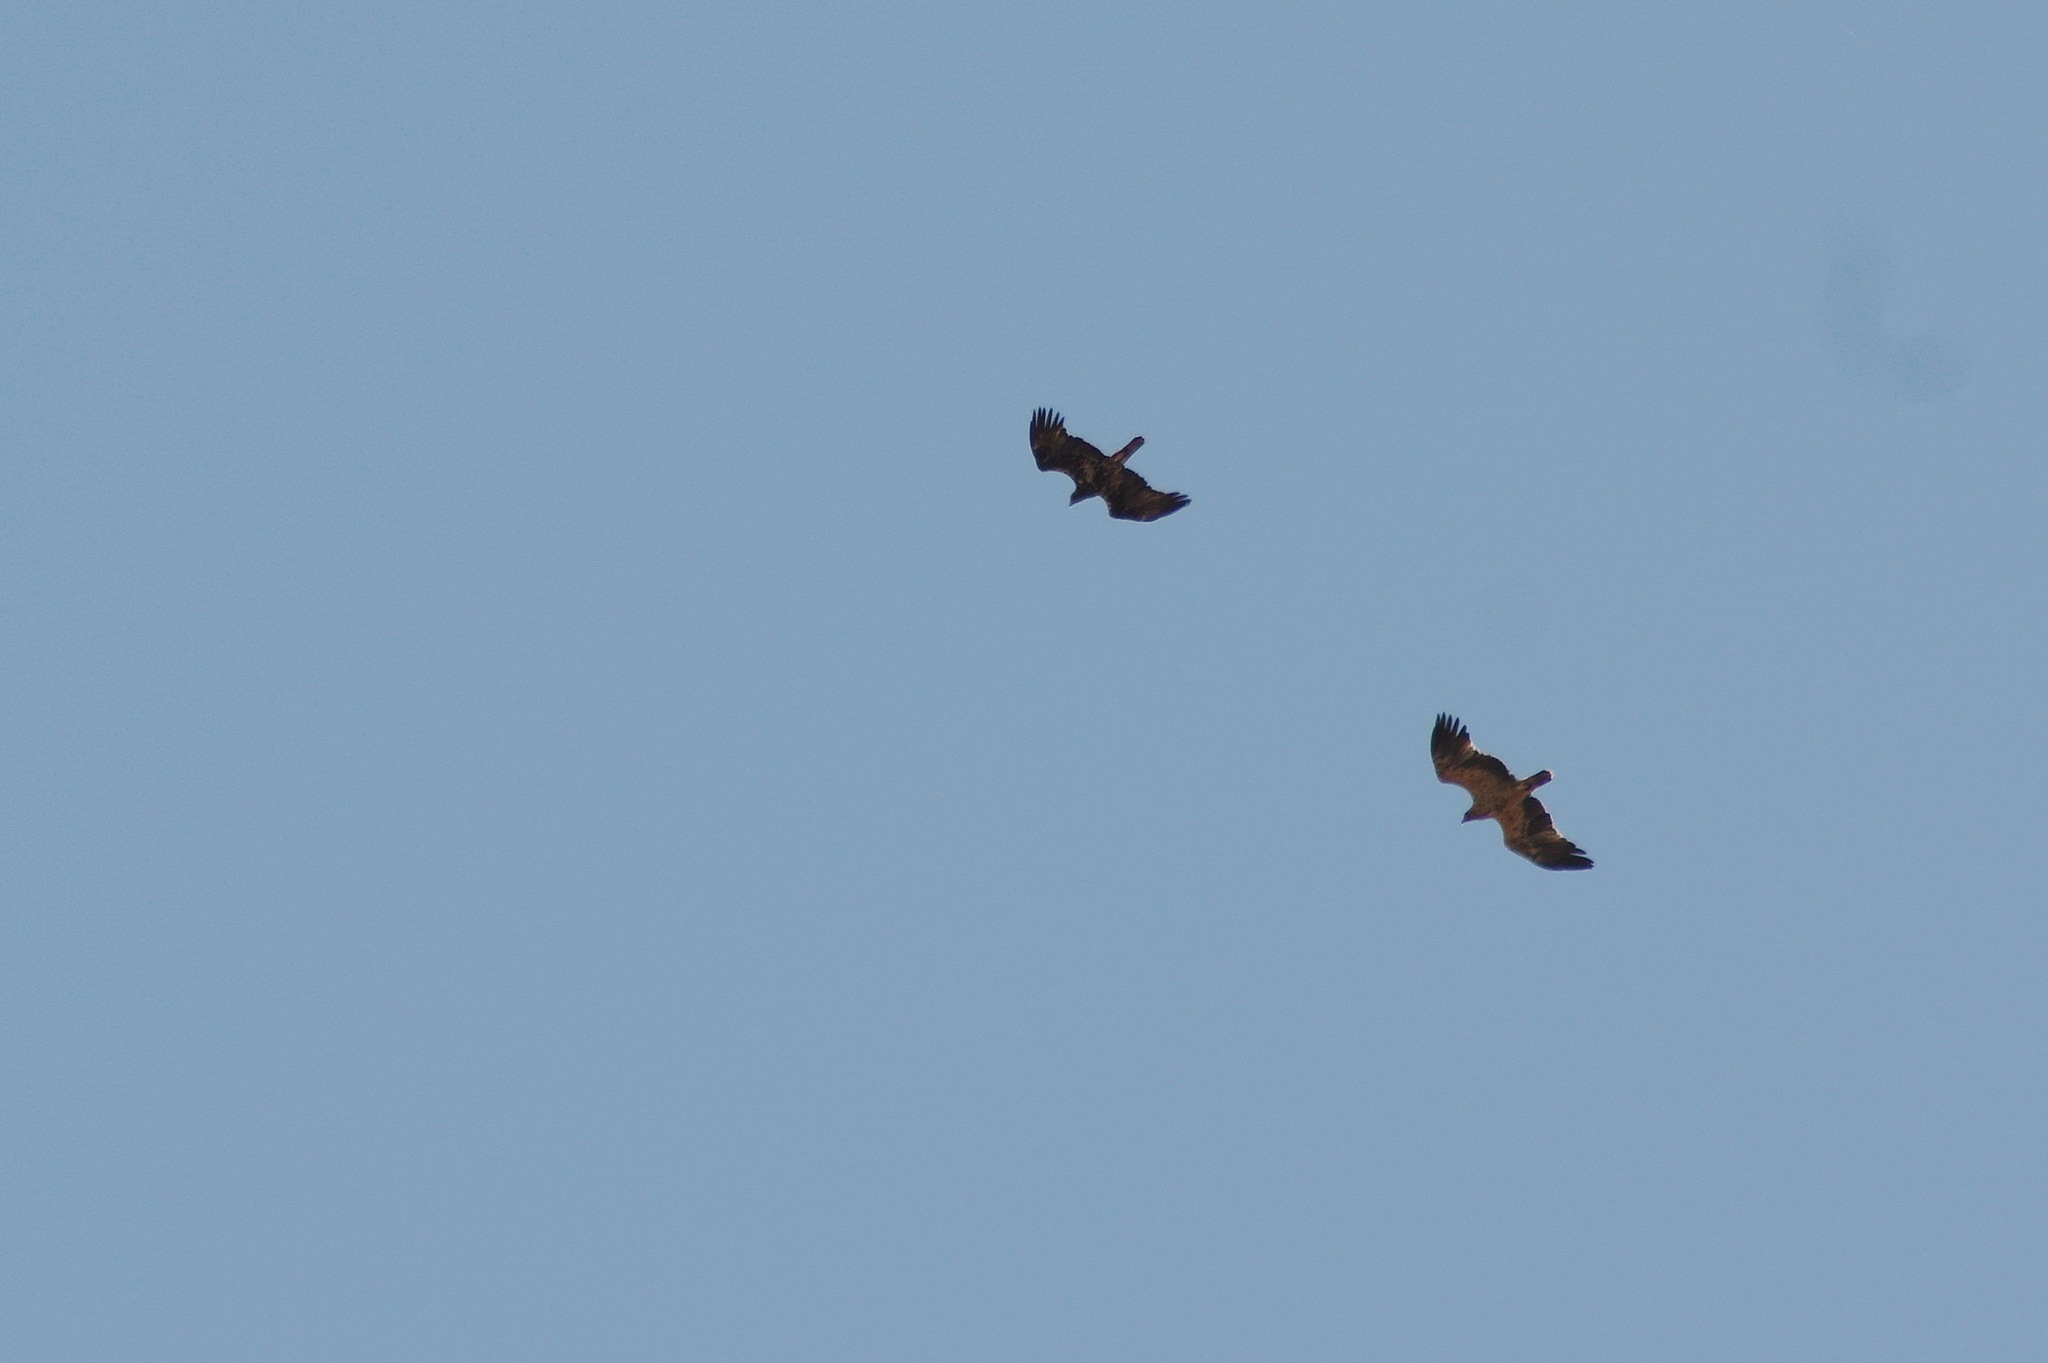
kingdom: Animalia
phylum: Chordata
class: Aves
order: Accipitriformes
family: Accipitridae
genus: Aquila
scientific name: Aquila adalberti
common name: Spanish imperial eagle
